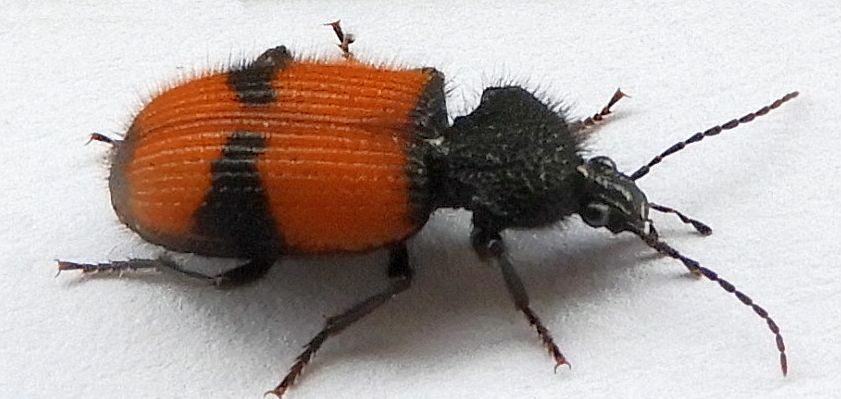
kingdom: Animalia
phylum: Arthropoda
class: Insecta
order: Coleoptera
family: Carabidae
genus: Panagaeus
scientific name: Panagaeus sallei
